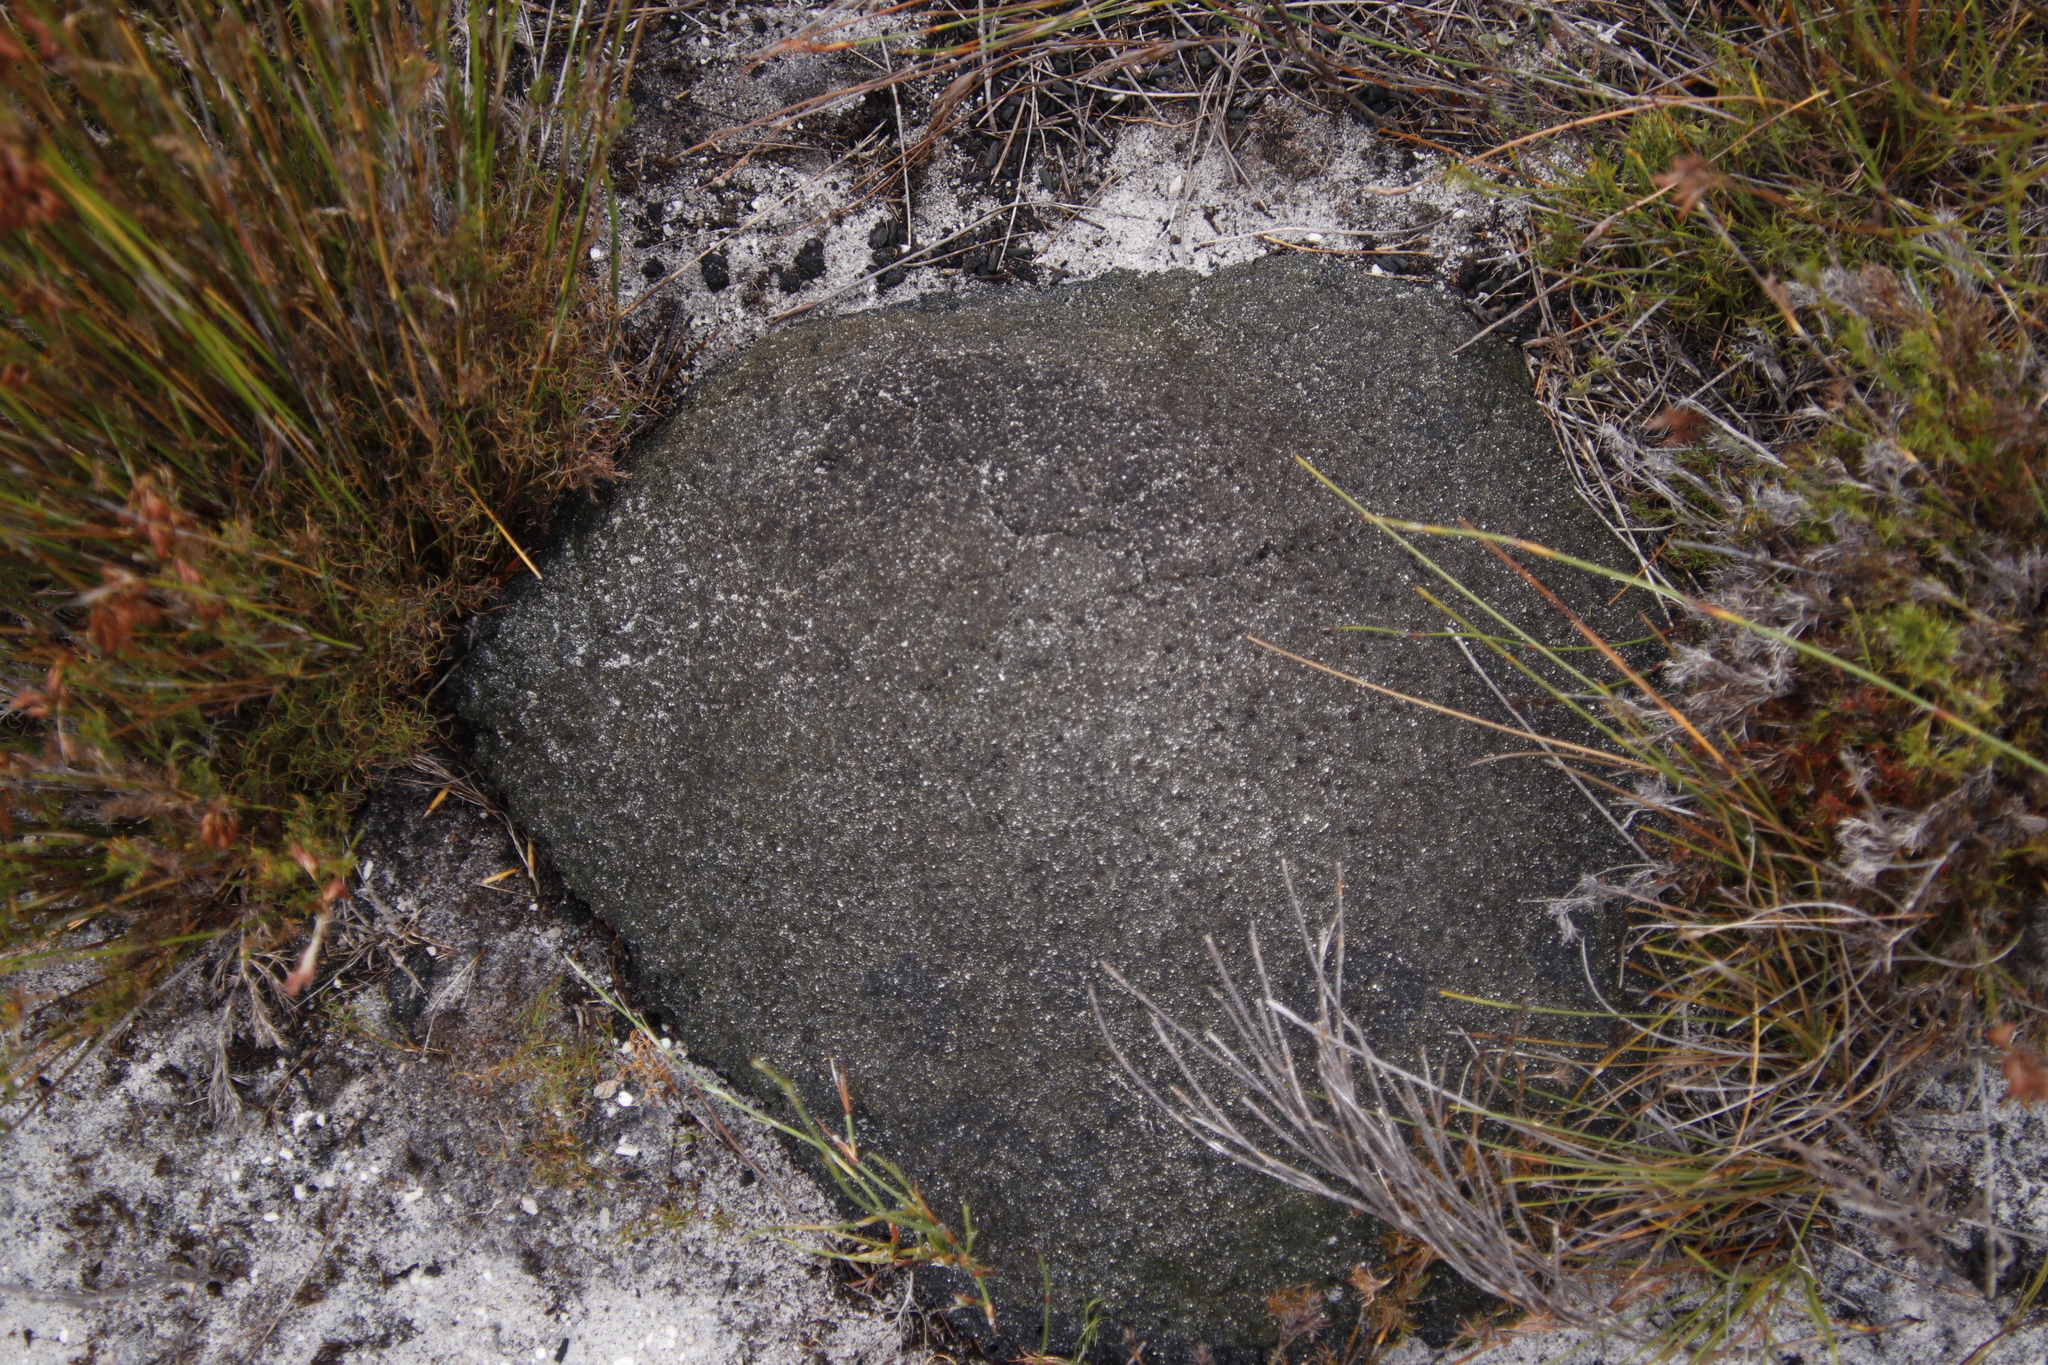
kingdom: Animalia
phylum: Arthropoda
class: Insecta
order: Blattodea
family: Termitidae
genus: Amitermes
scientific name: Amitermes hastatus
